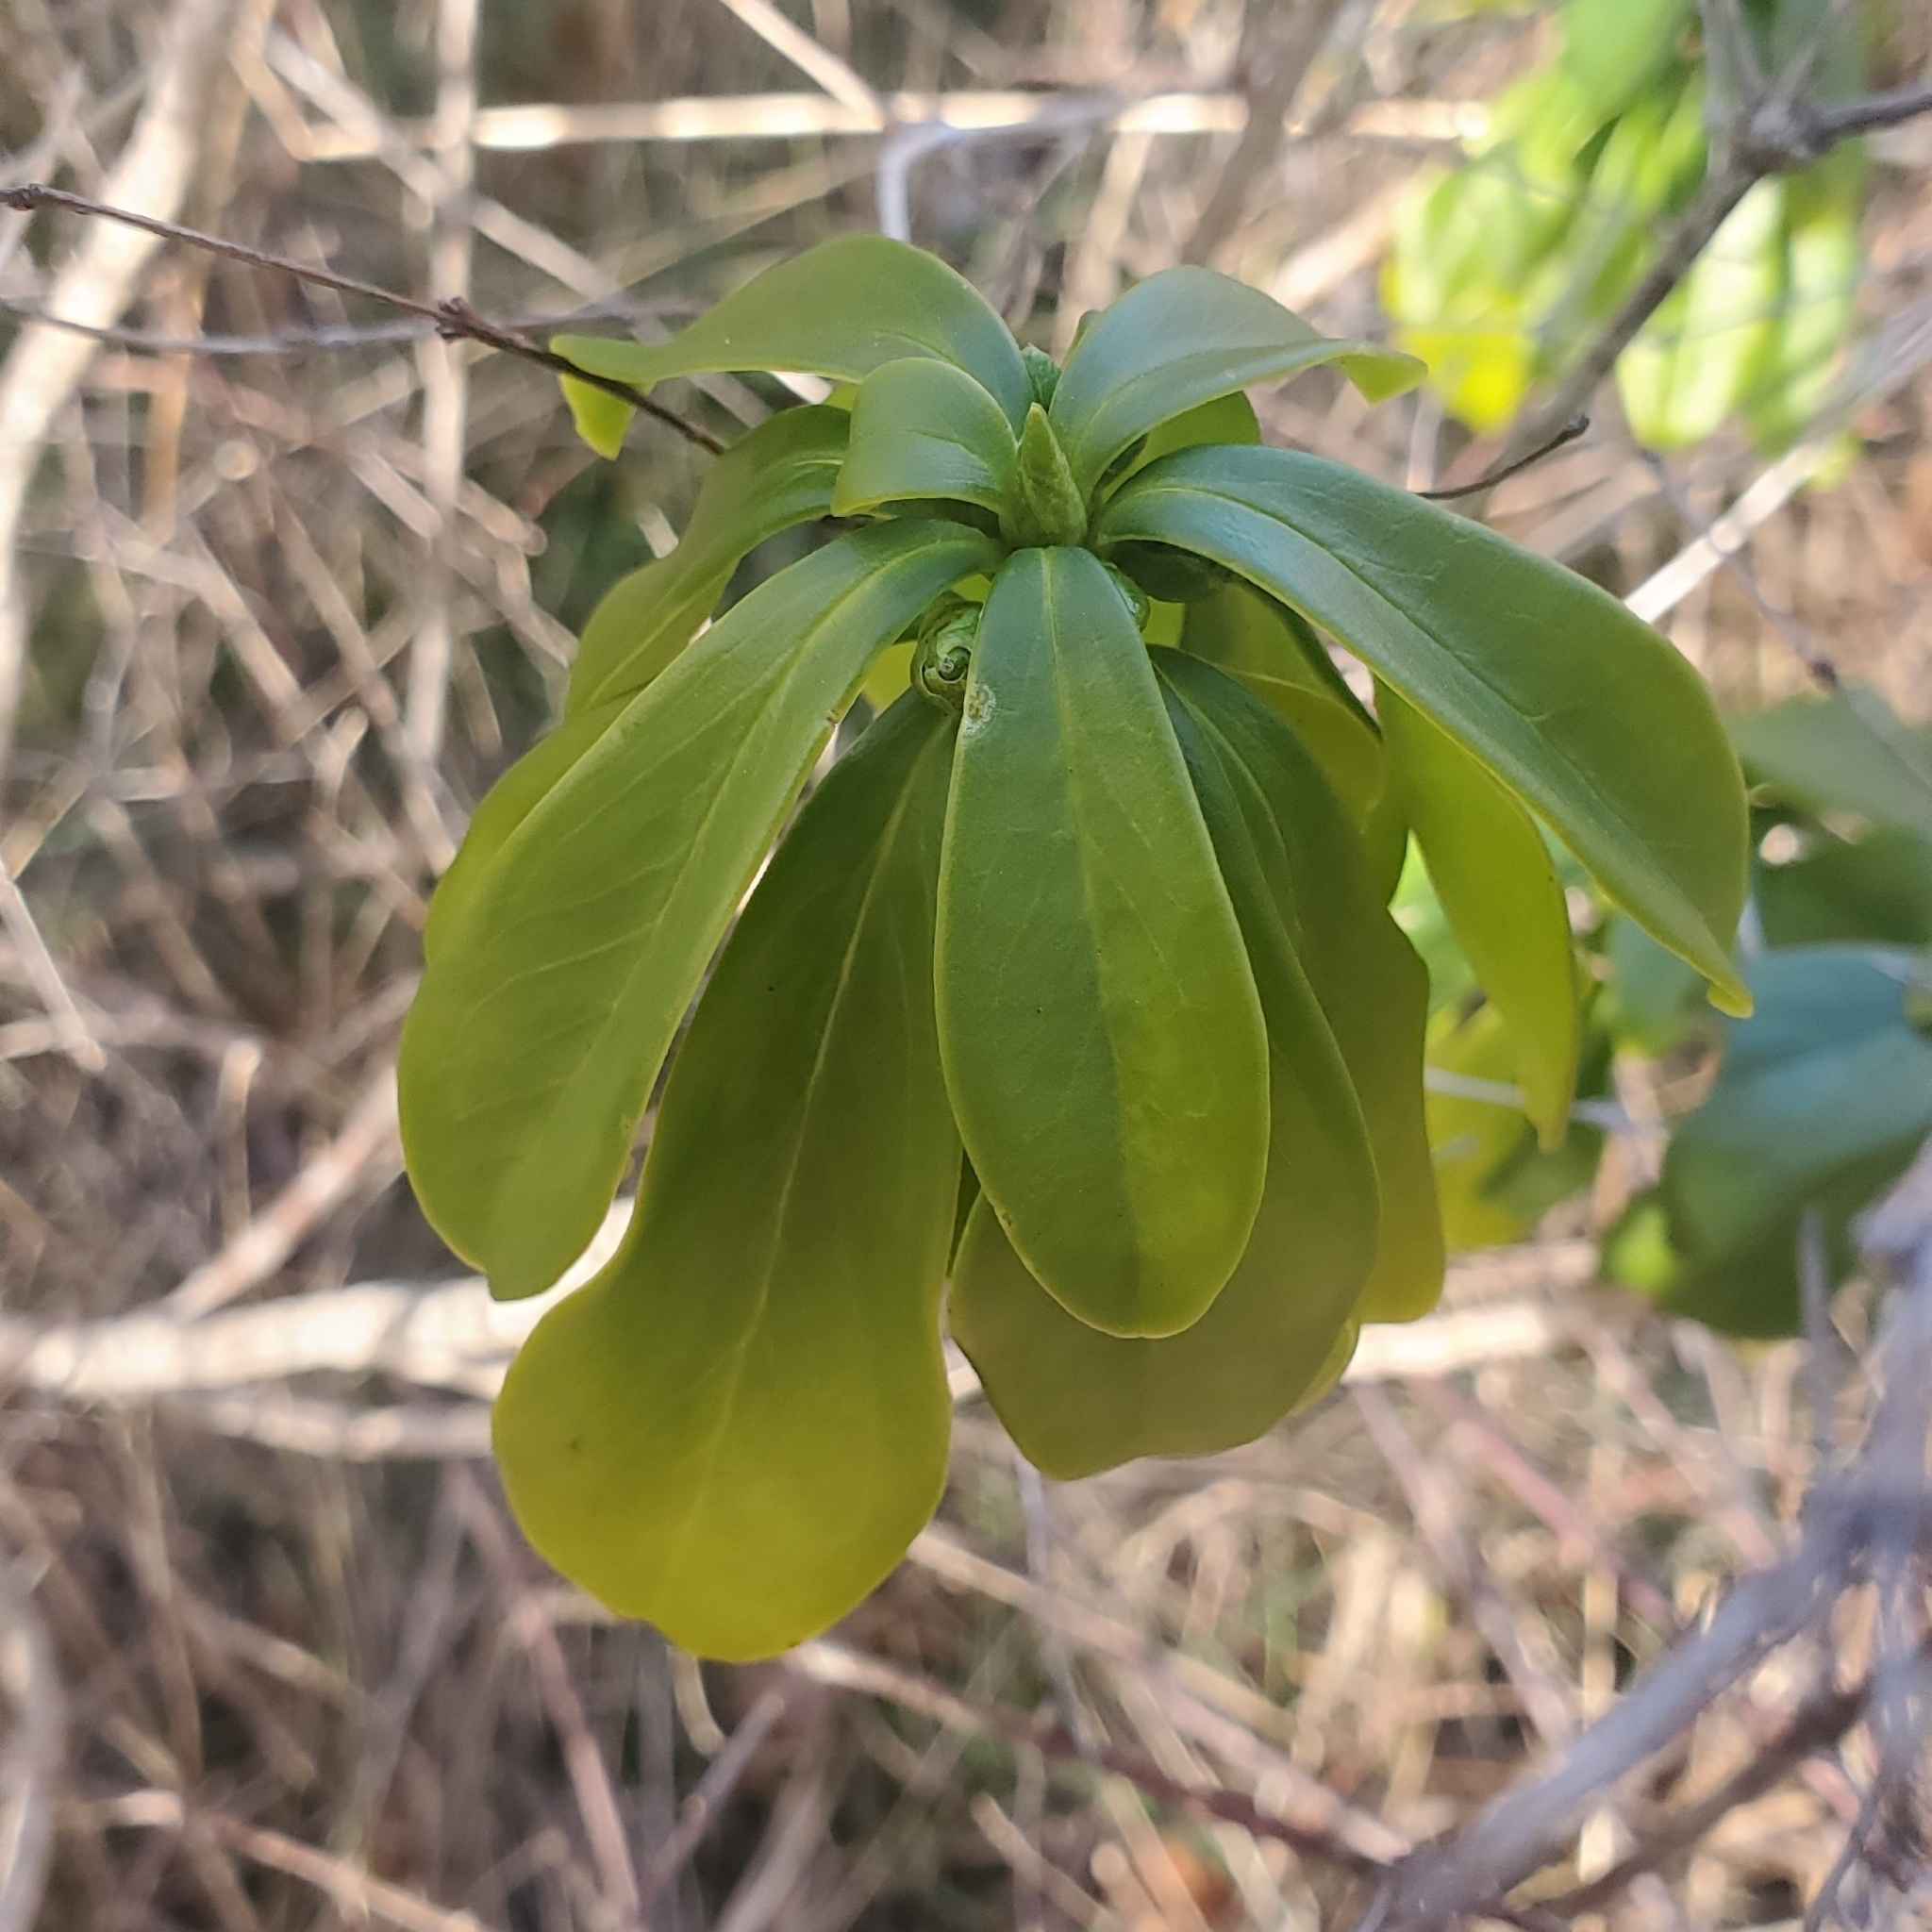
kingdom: Plantae
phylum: Tracheophyta
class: Magnoliopsida
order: Malvales
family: Thymelaeaceae
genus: Daphne
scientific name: Daphne laureola
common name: Spurge-laurel
